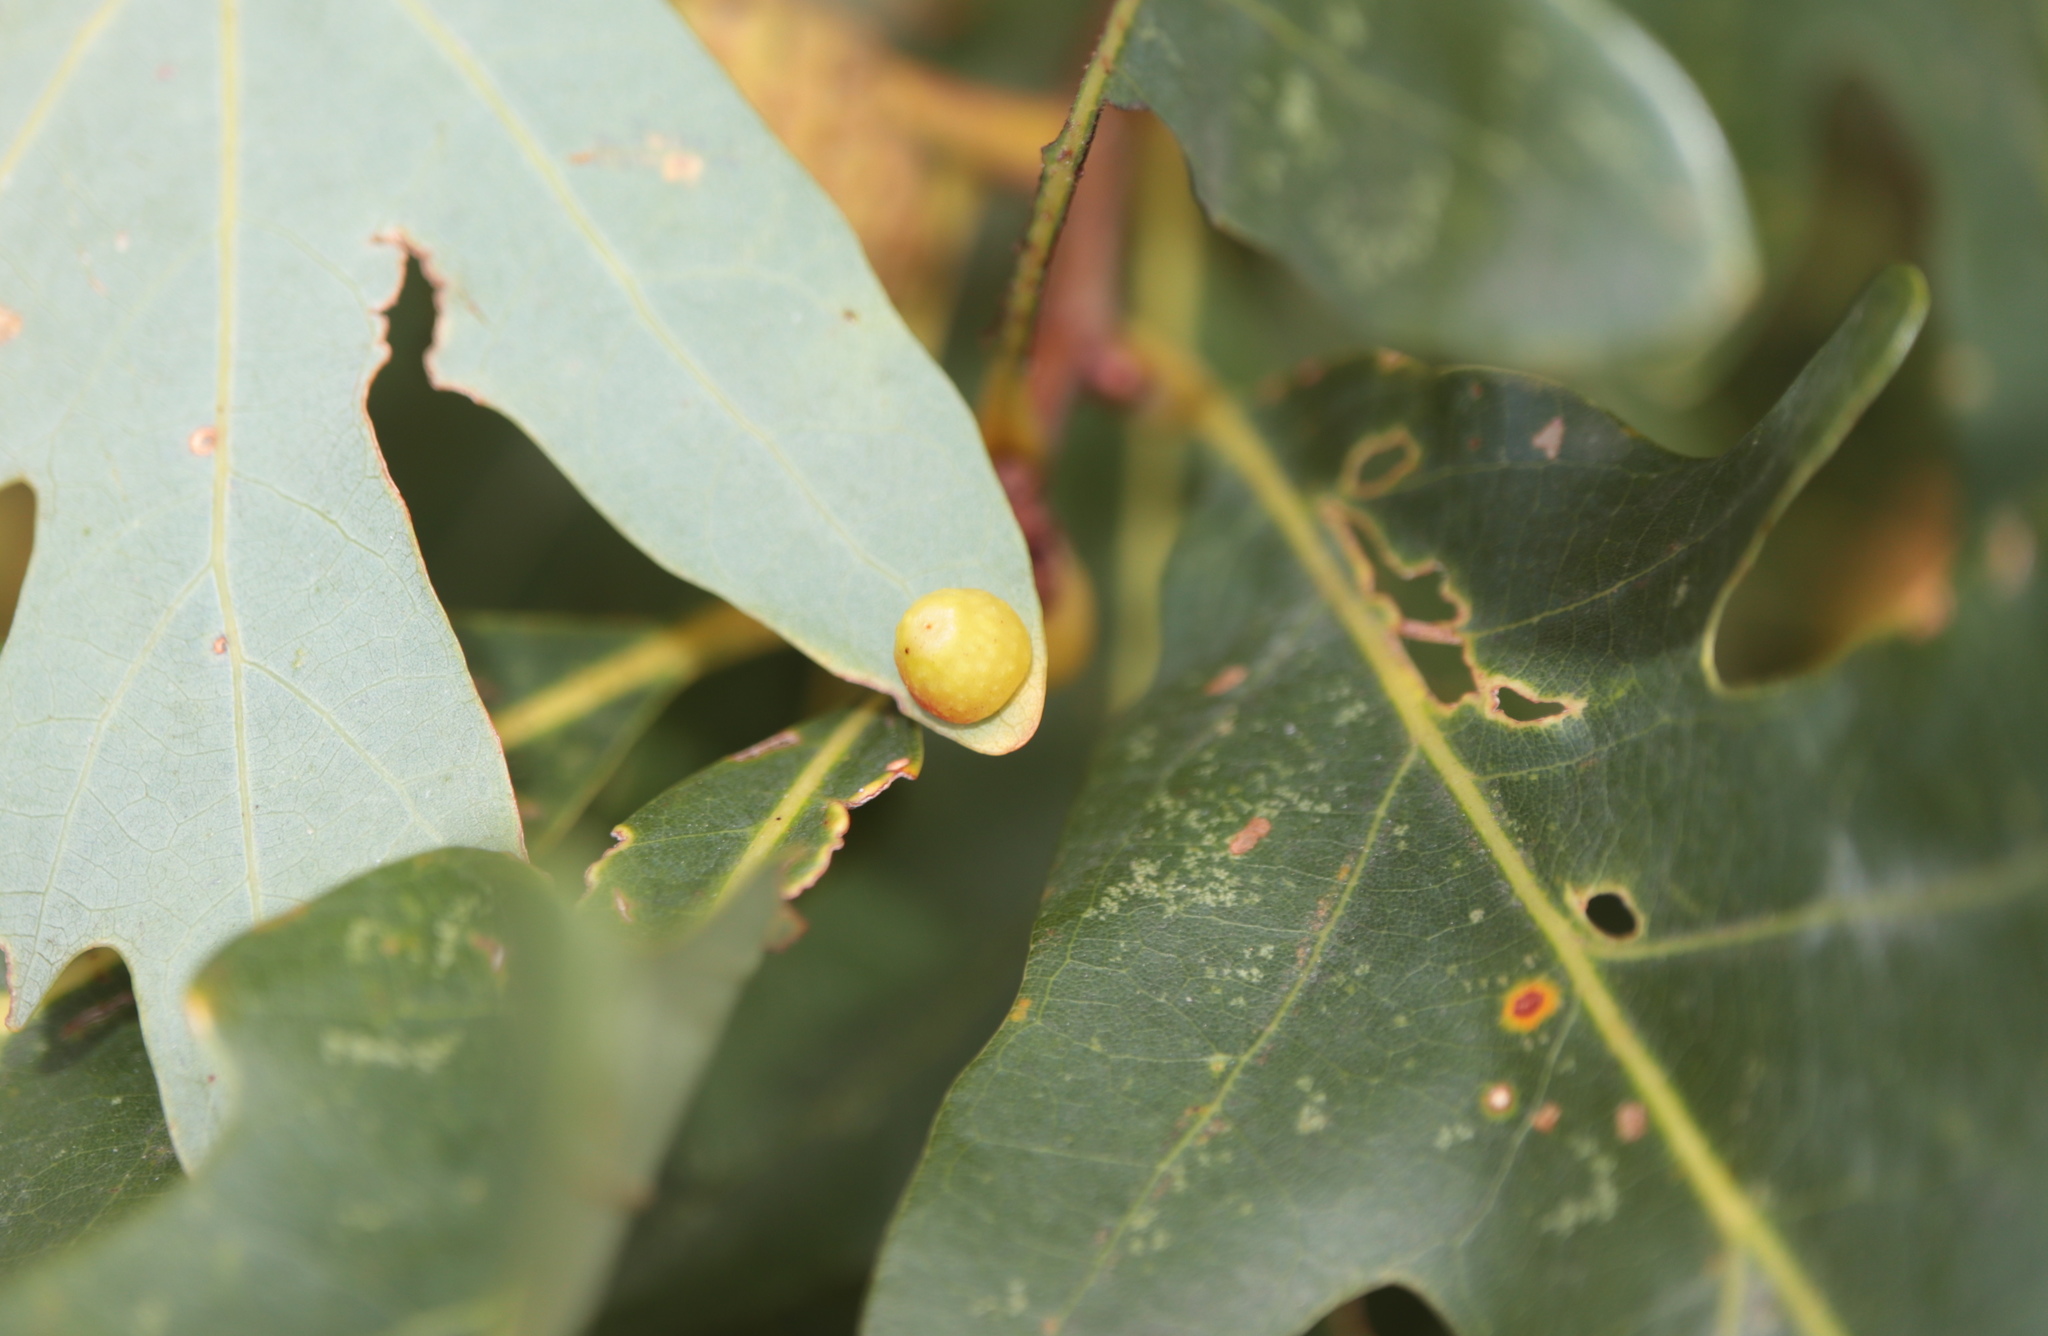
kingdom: Animalia
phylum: Arthropoda
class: Insecta
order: Hymenoptera
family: Cynipidae
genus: Andricus
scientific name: Andricus
